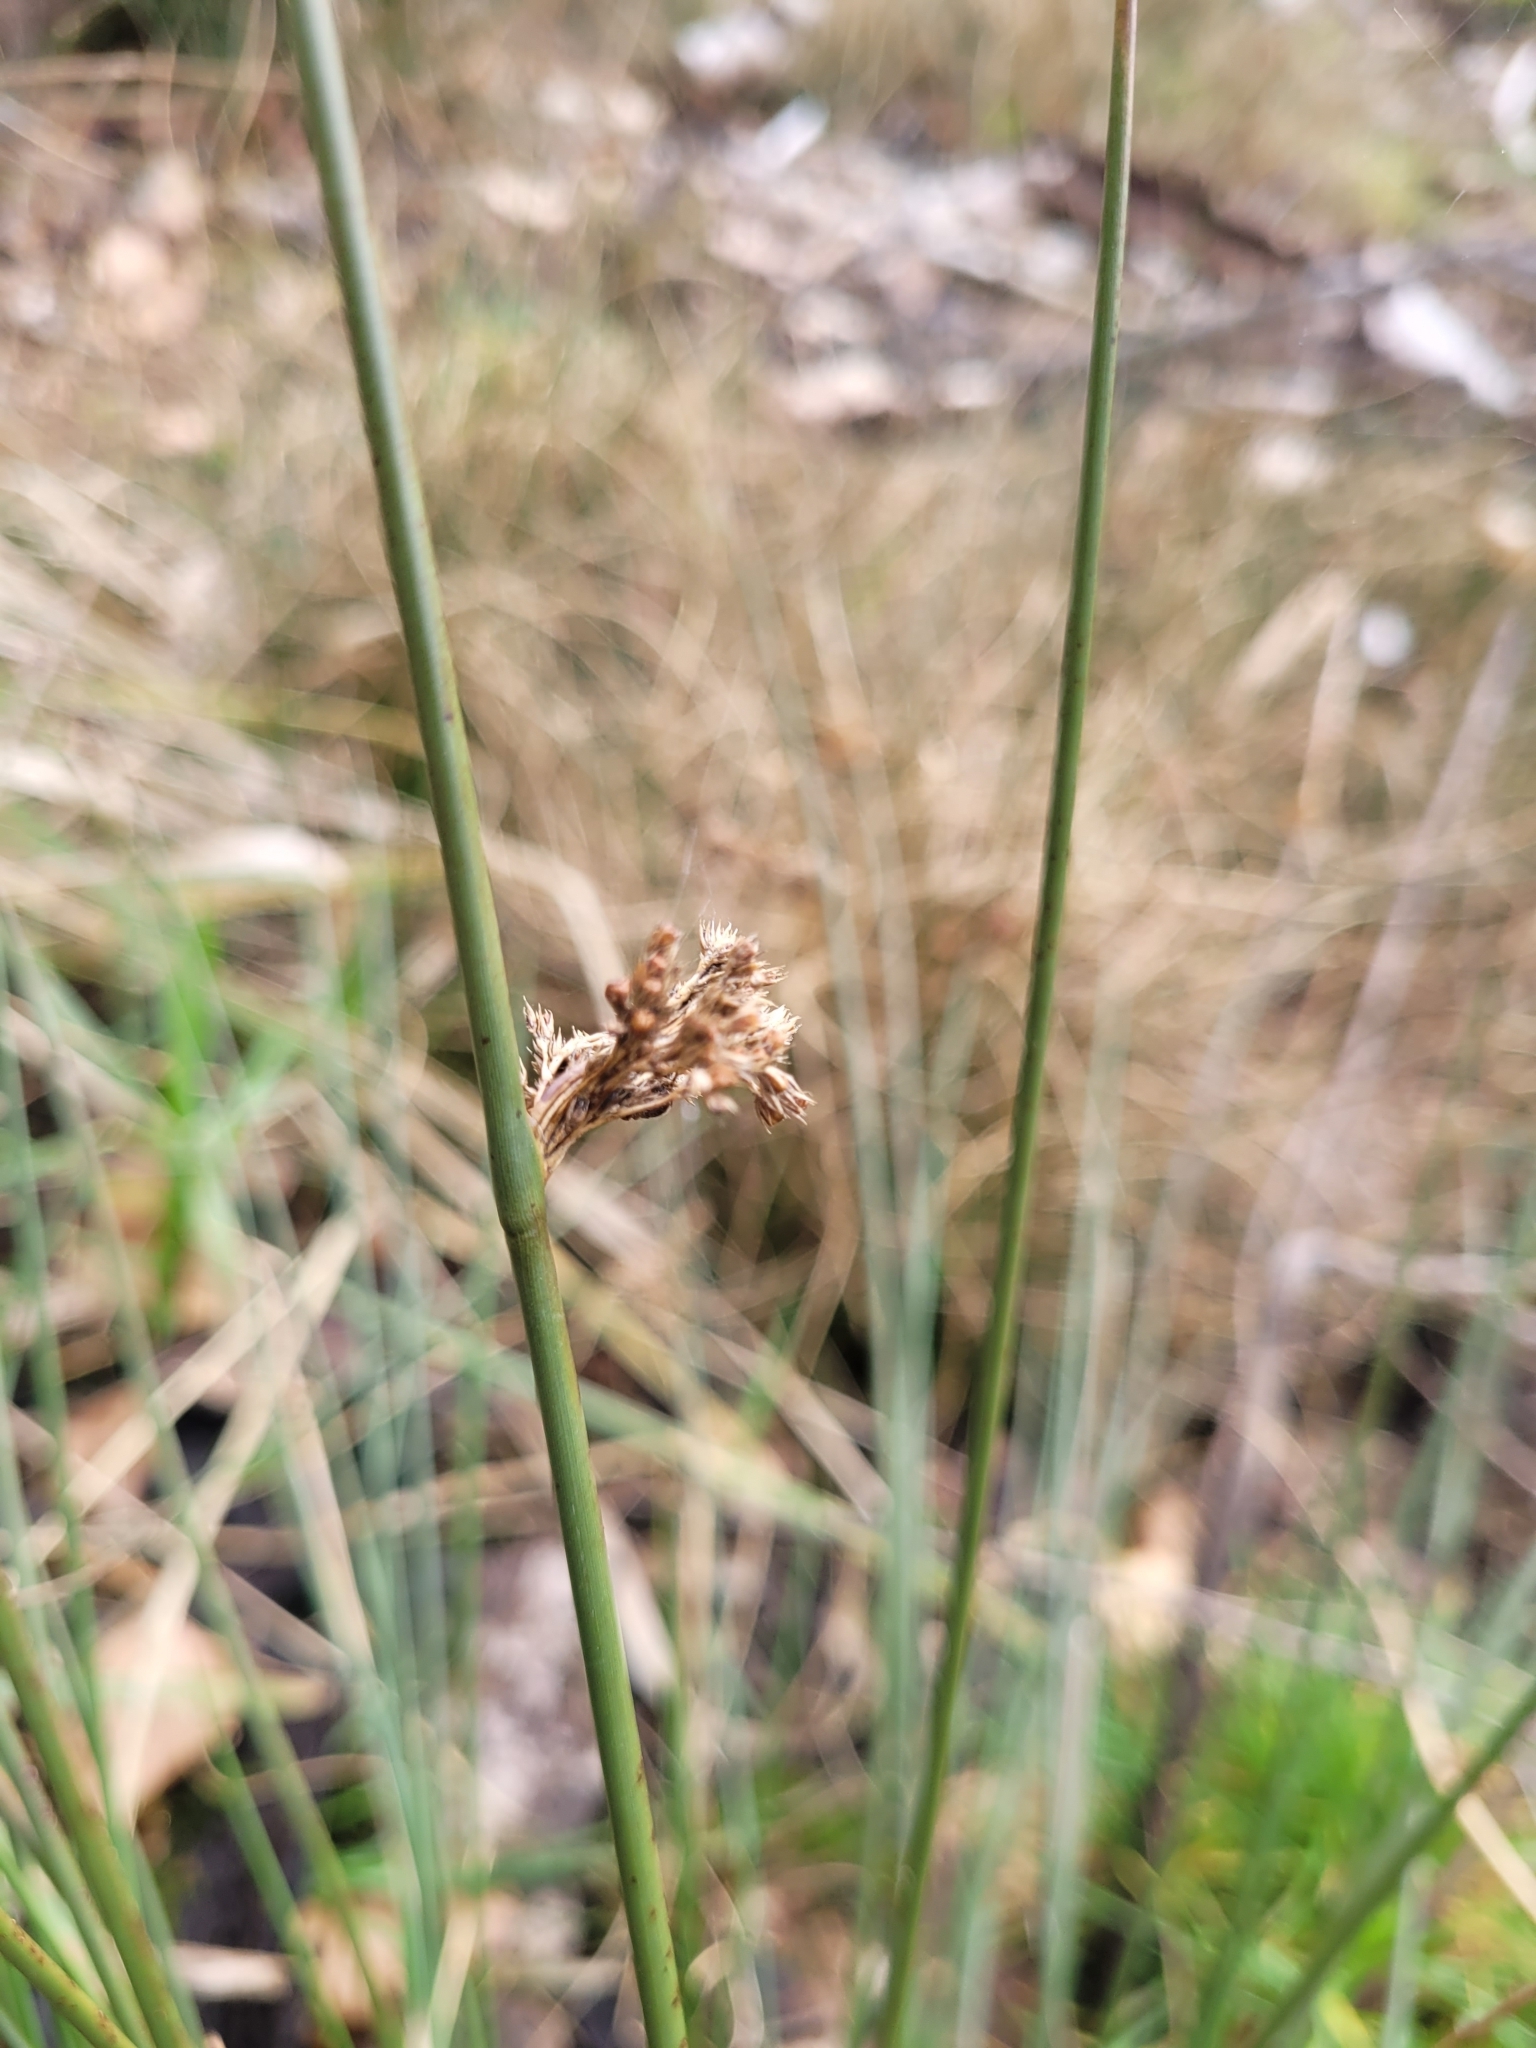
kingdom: Plantae
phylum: Tracheophyta
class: Liliopsida
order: Poales
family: Juncaceae
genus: Juncus
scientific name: Juncus effusus
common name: Soft rush
